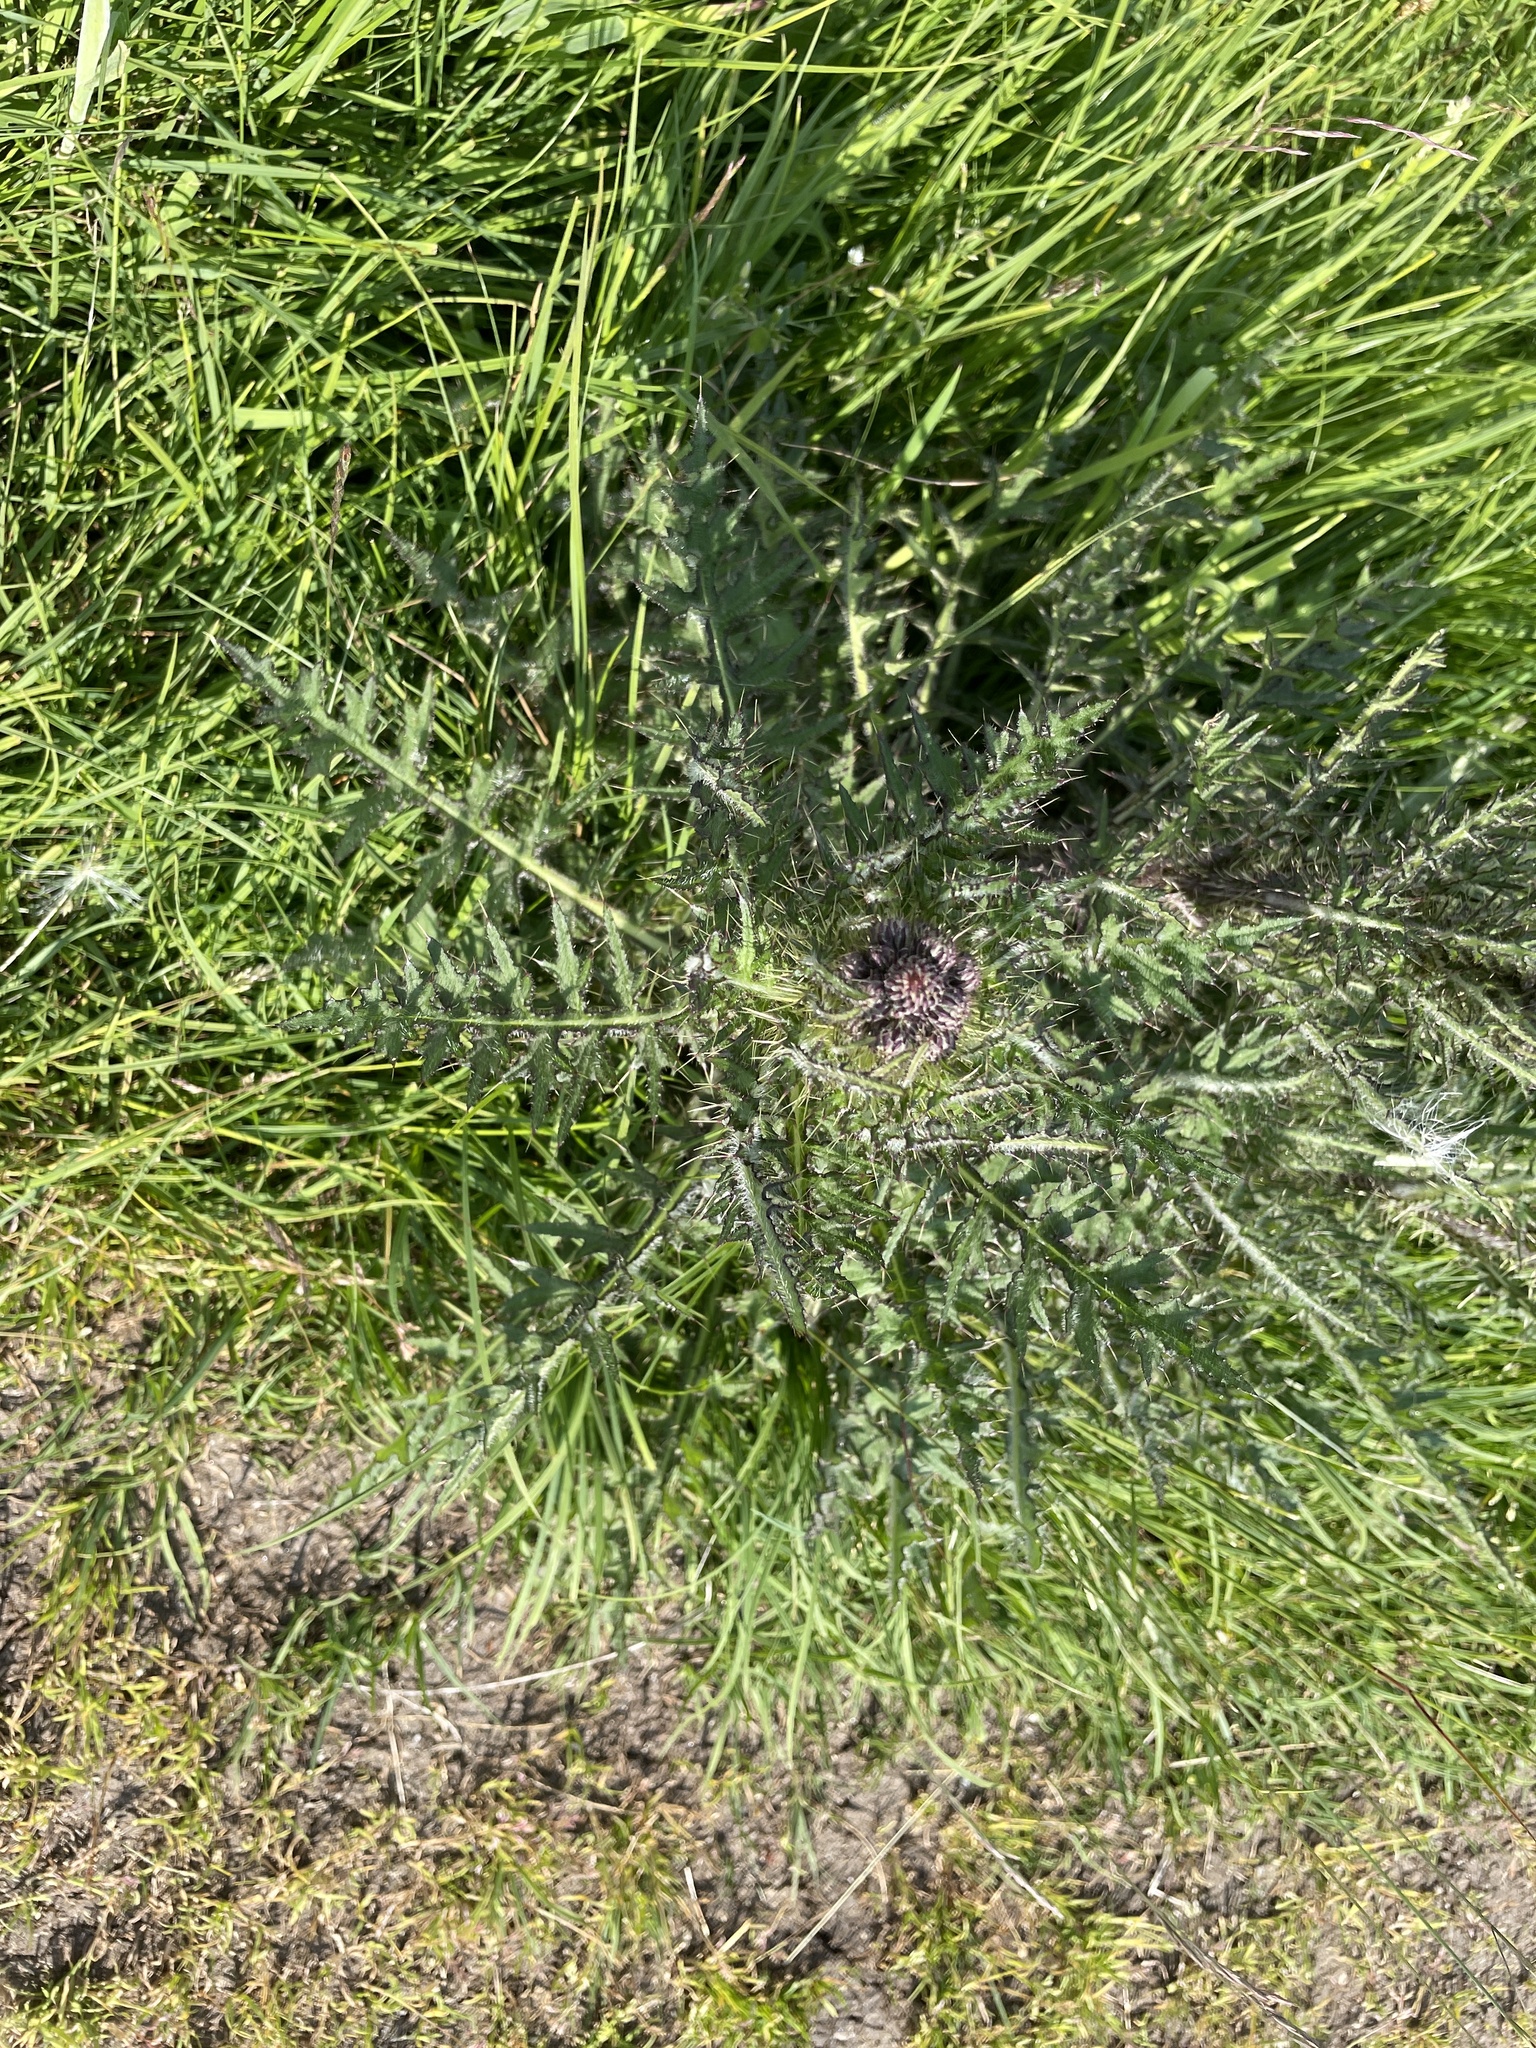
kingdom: Plantae
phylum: Tracheophyta
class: Magnoliopsida
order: Asterales
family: Asteraceae
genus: Cirsium
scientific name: Cirsium palustre
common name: Marsh thistle
